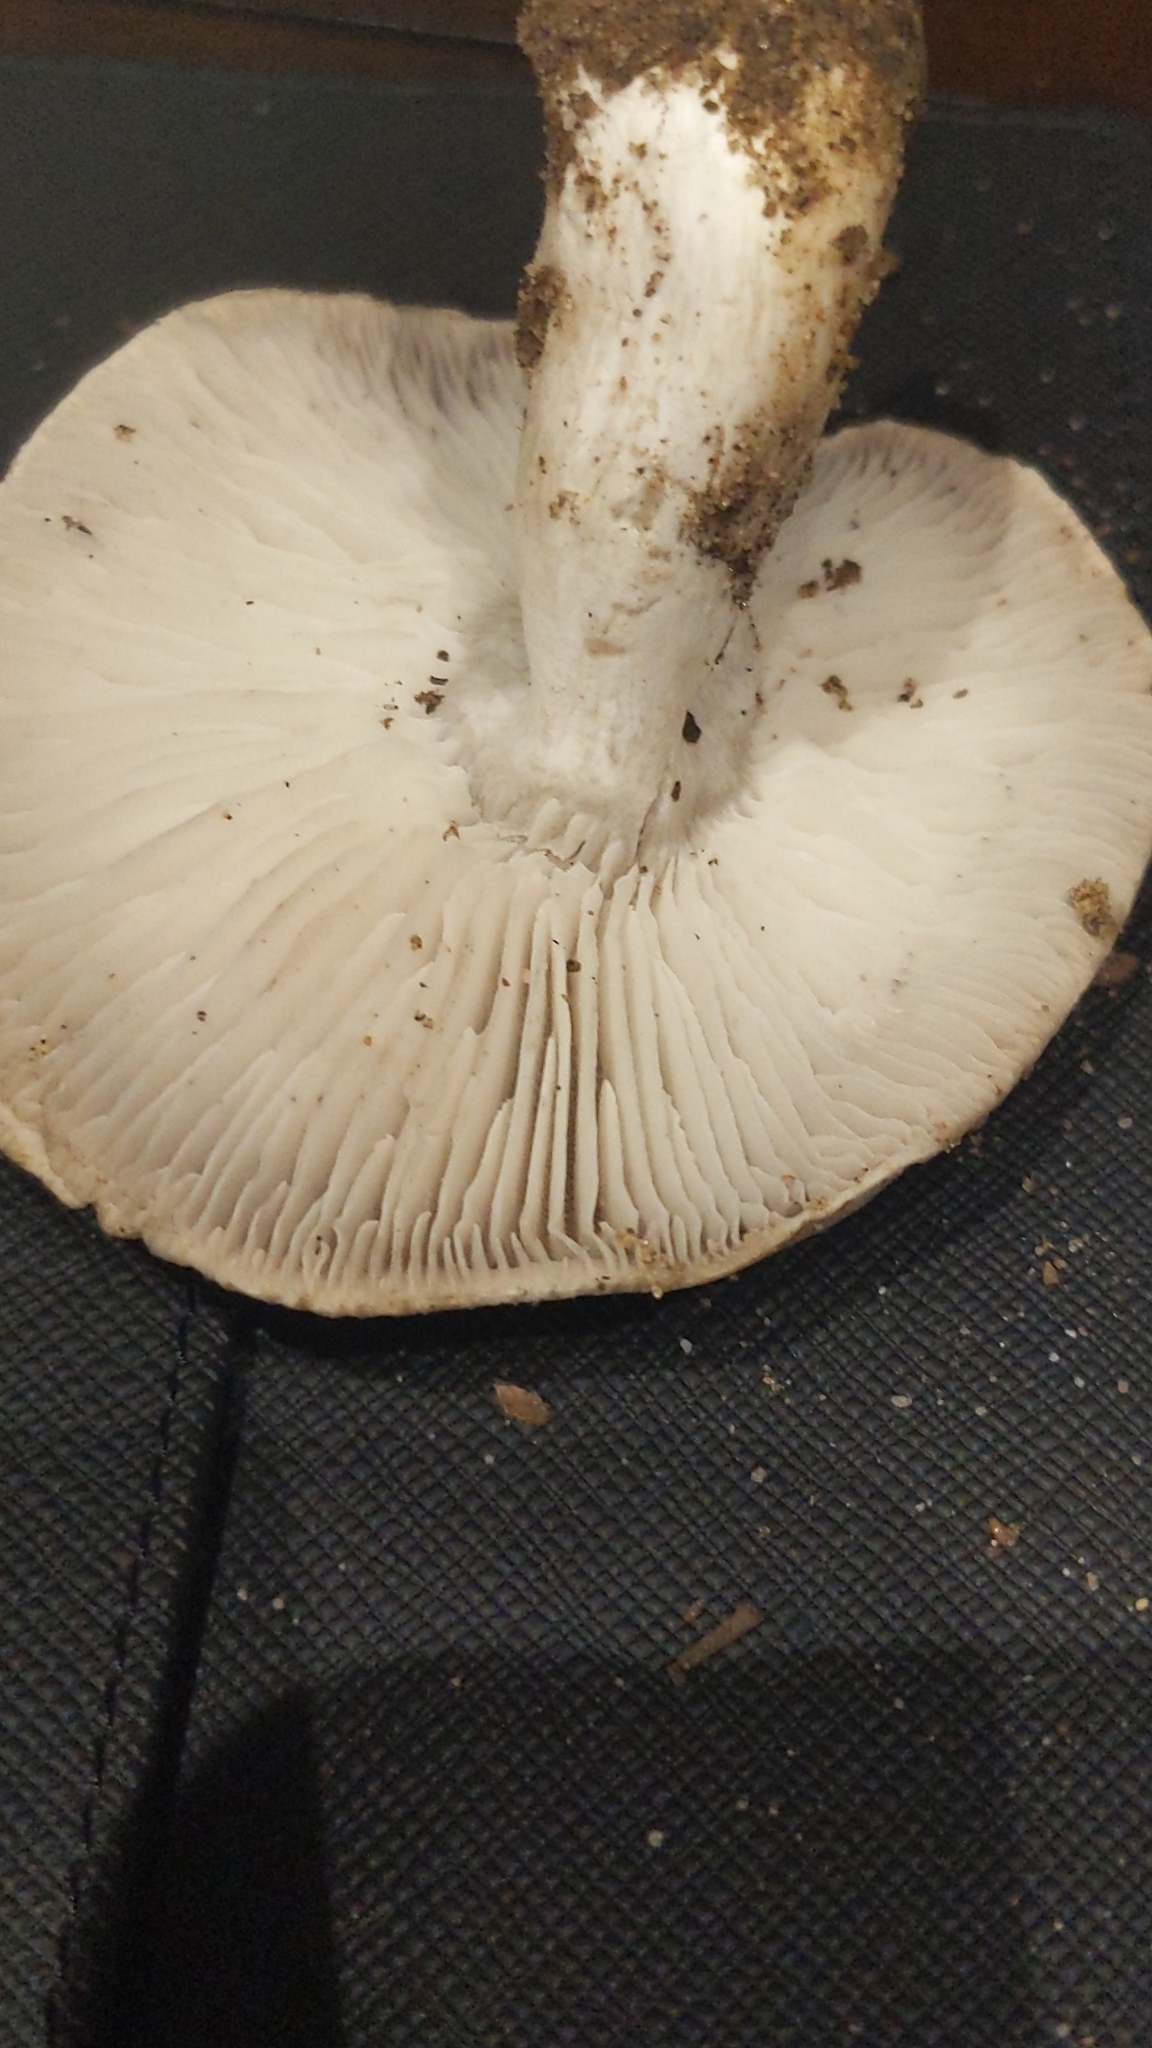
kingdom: Fungi
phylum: Basidiomycota
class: Agaricomycetes
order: Agaricales
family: Tricholomataceae
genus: Tricholoma
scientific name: Tricholoma terreum
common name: Grey knight
